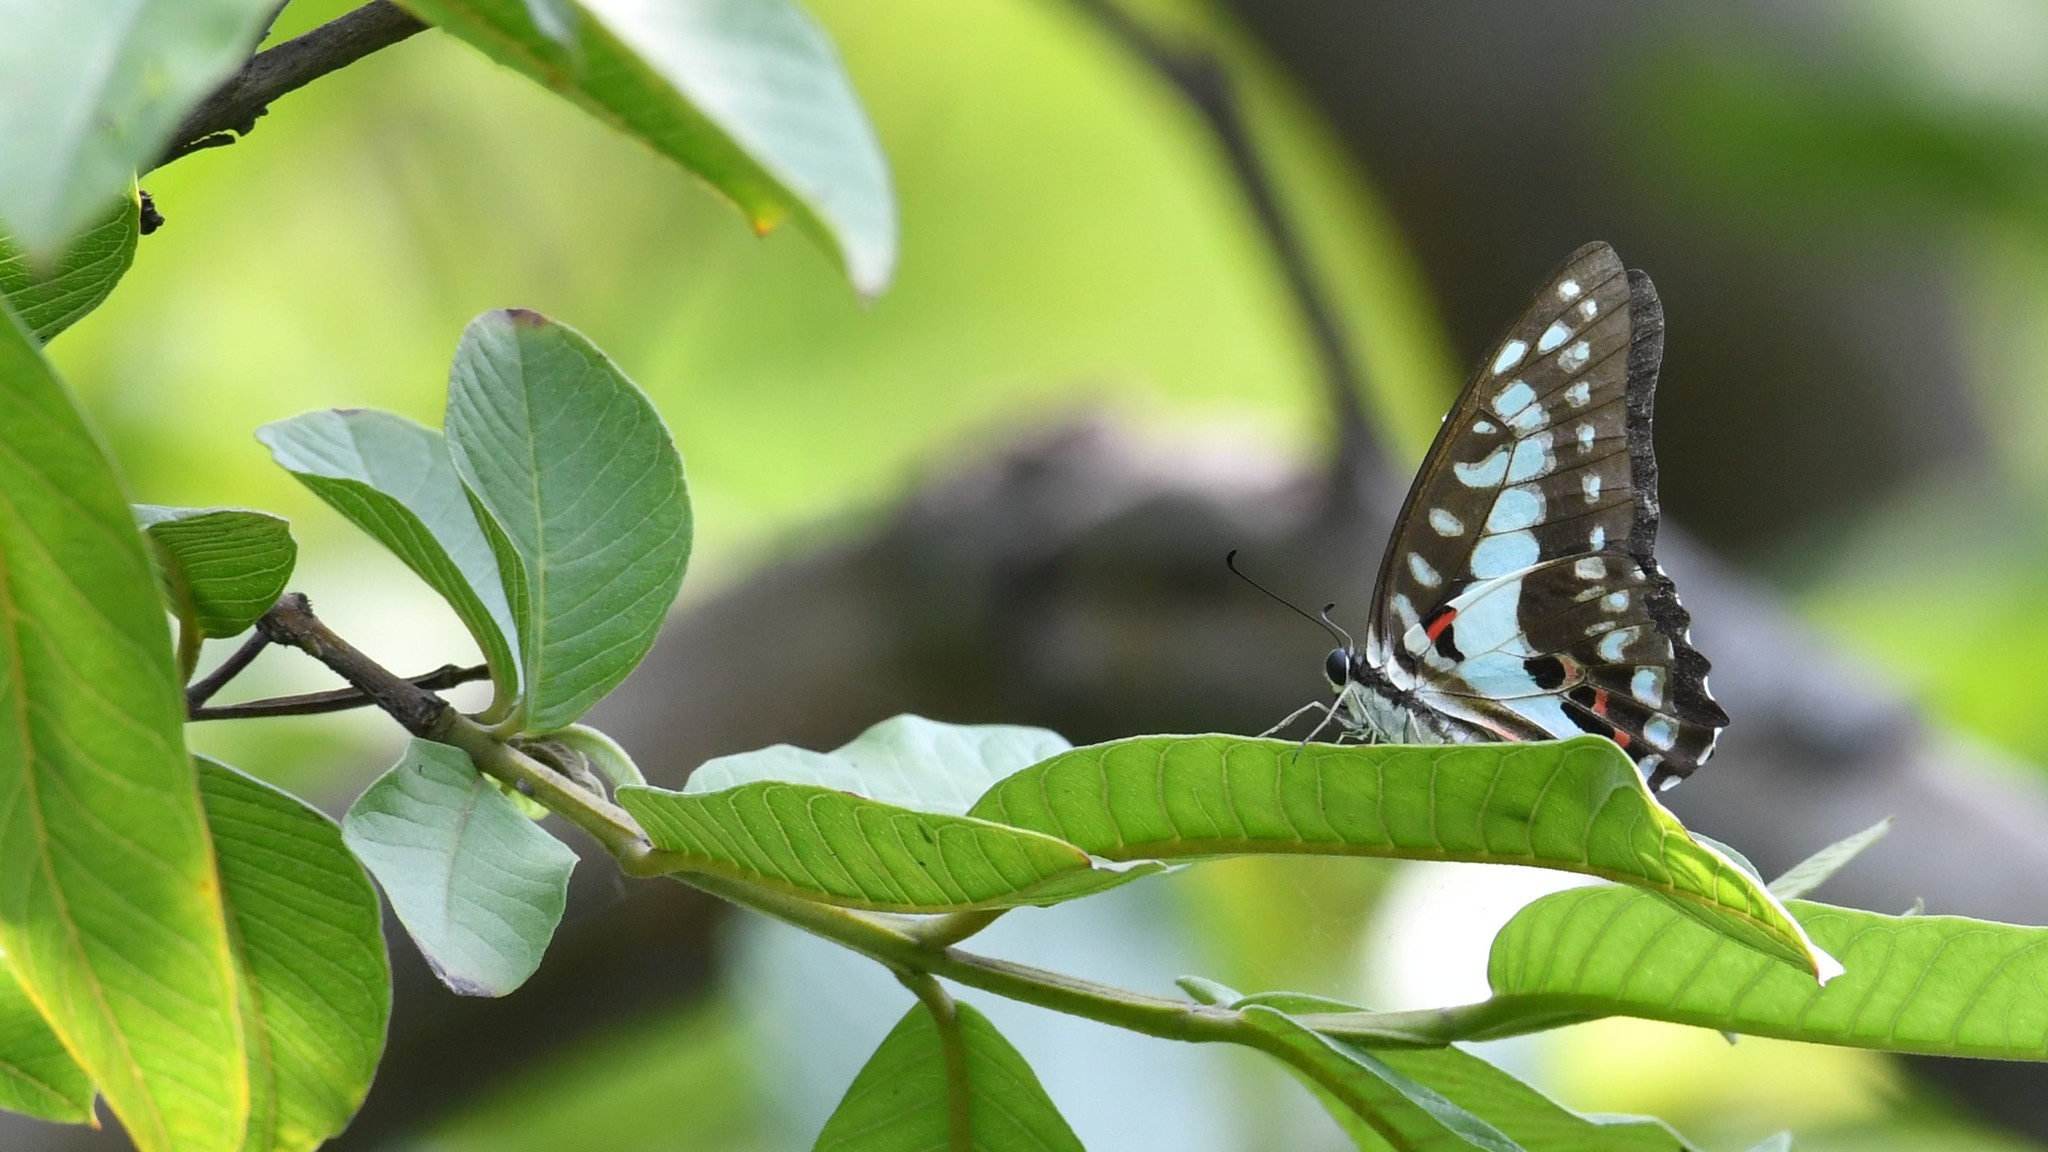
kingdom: Animalia
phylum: Arthropoda
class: Insecta
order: Lepidoptera
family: Papilionidae
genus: Graphium
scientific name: Graphium doson
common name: Common jay
